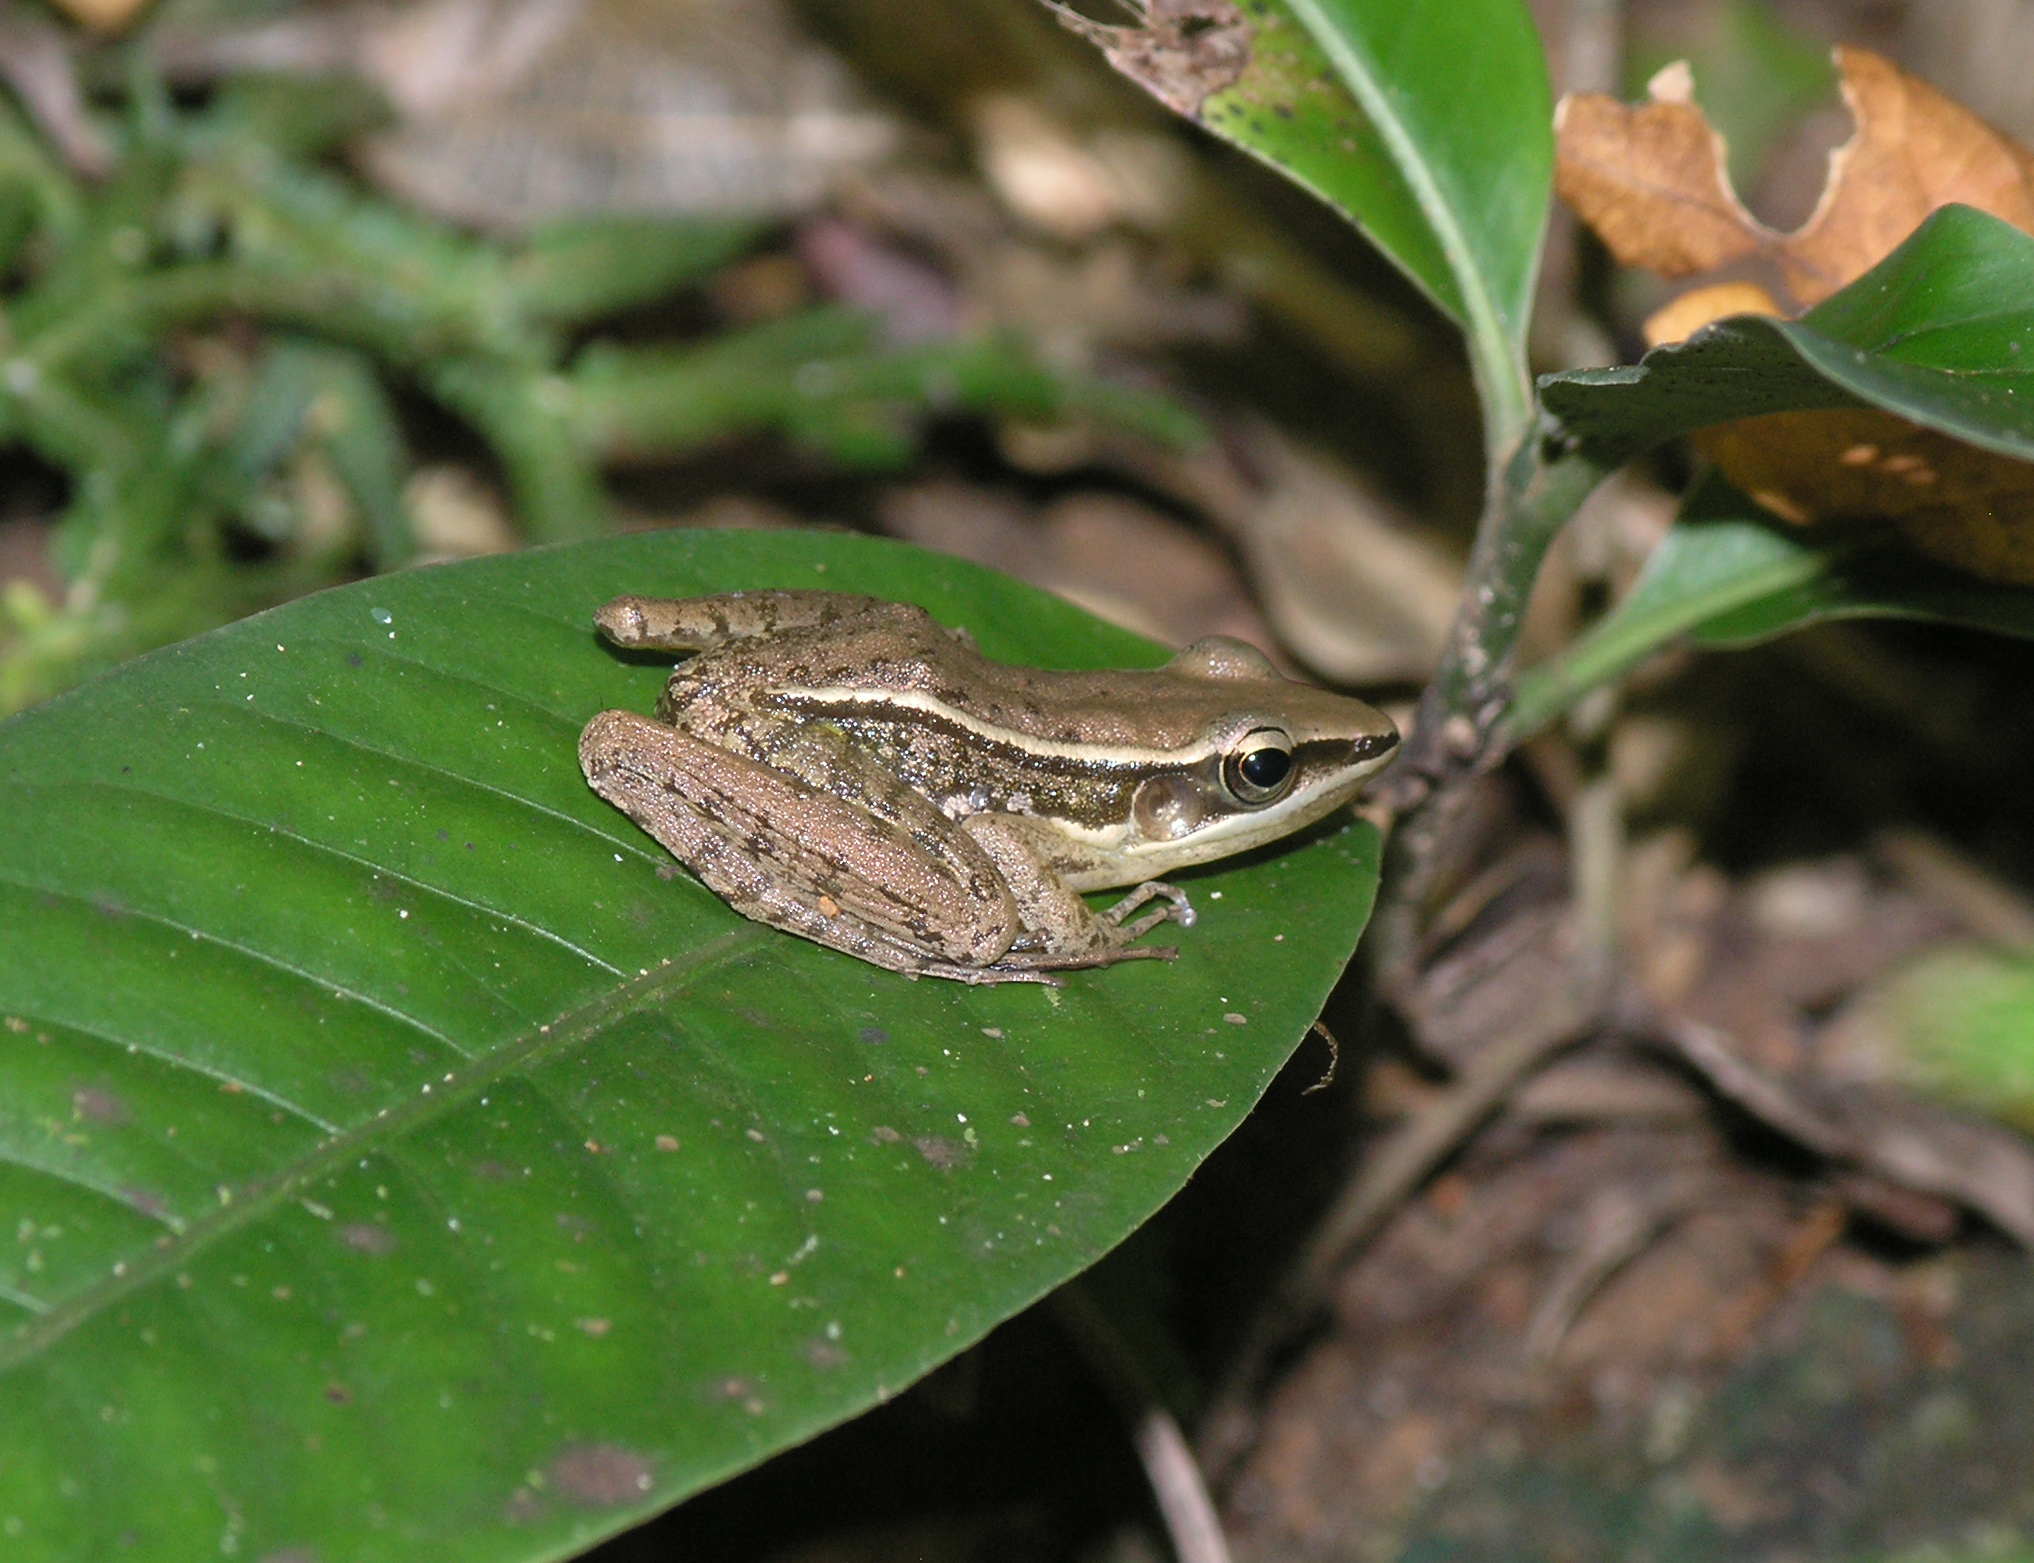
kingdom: Animalia
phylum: Chordata
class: Amphibia
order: Anura
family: Ranidae
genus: Hylarana
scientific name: Hylarana taipehensis
